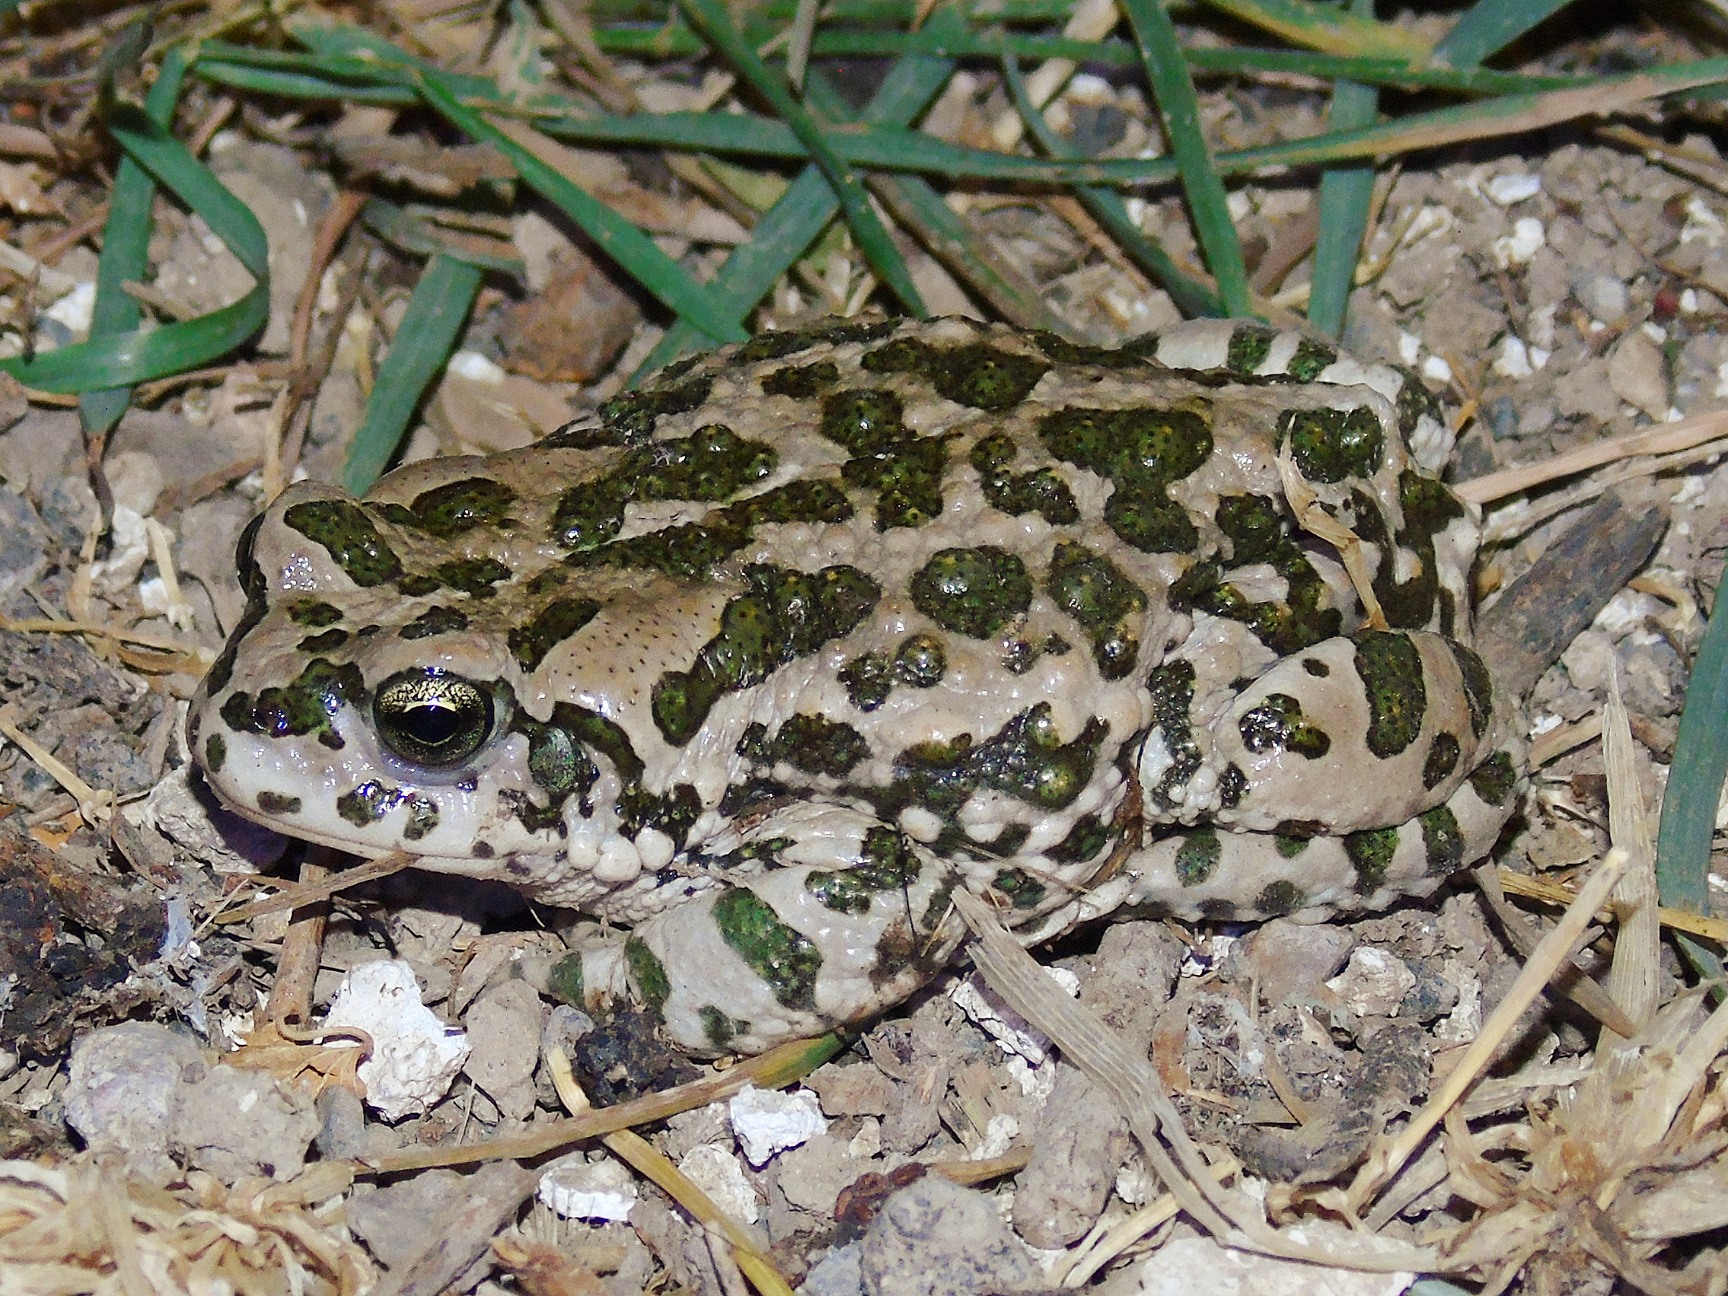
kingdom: Animalia
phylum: Chordata
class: Amphibia
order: Anura
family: Bufonidae
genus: Bufotes
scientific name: Bufotes pewzowi
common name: Xinjiang toad
